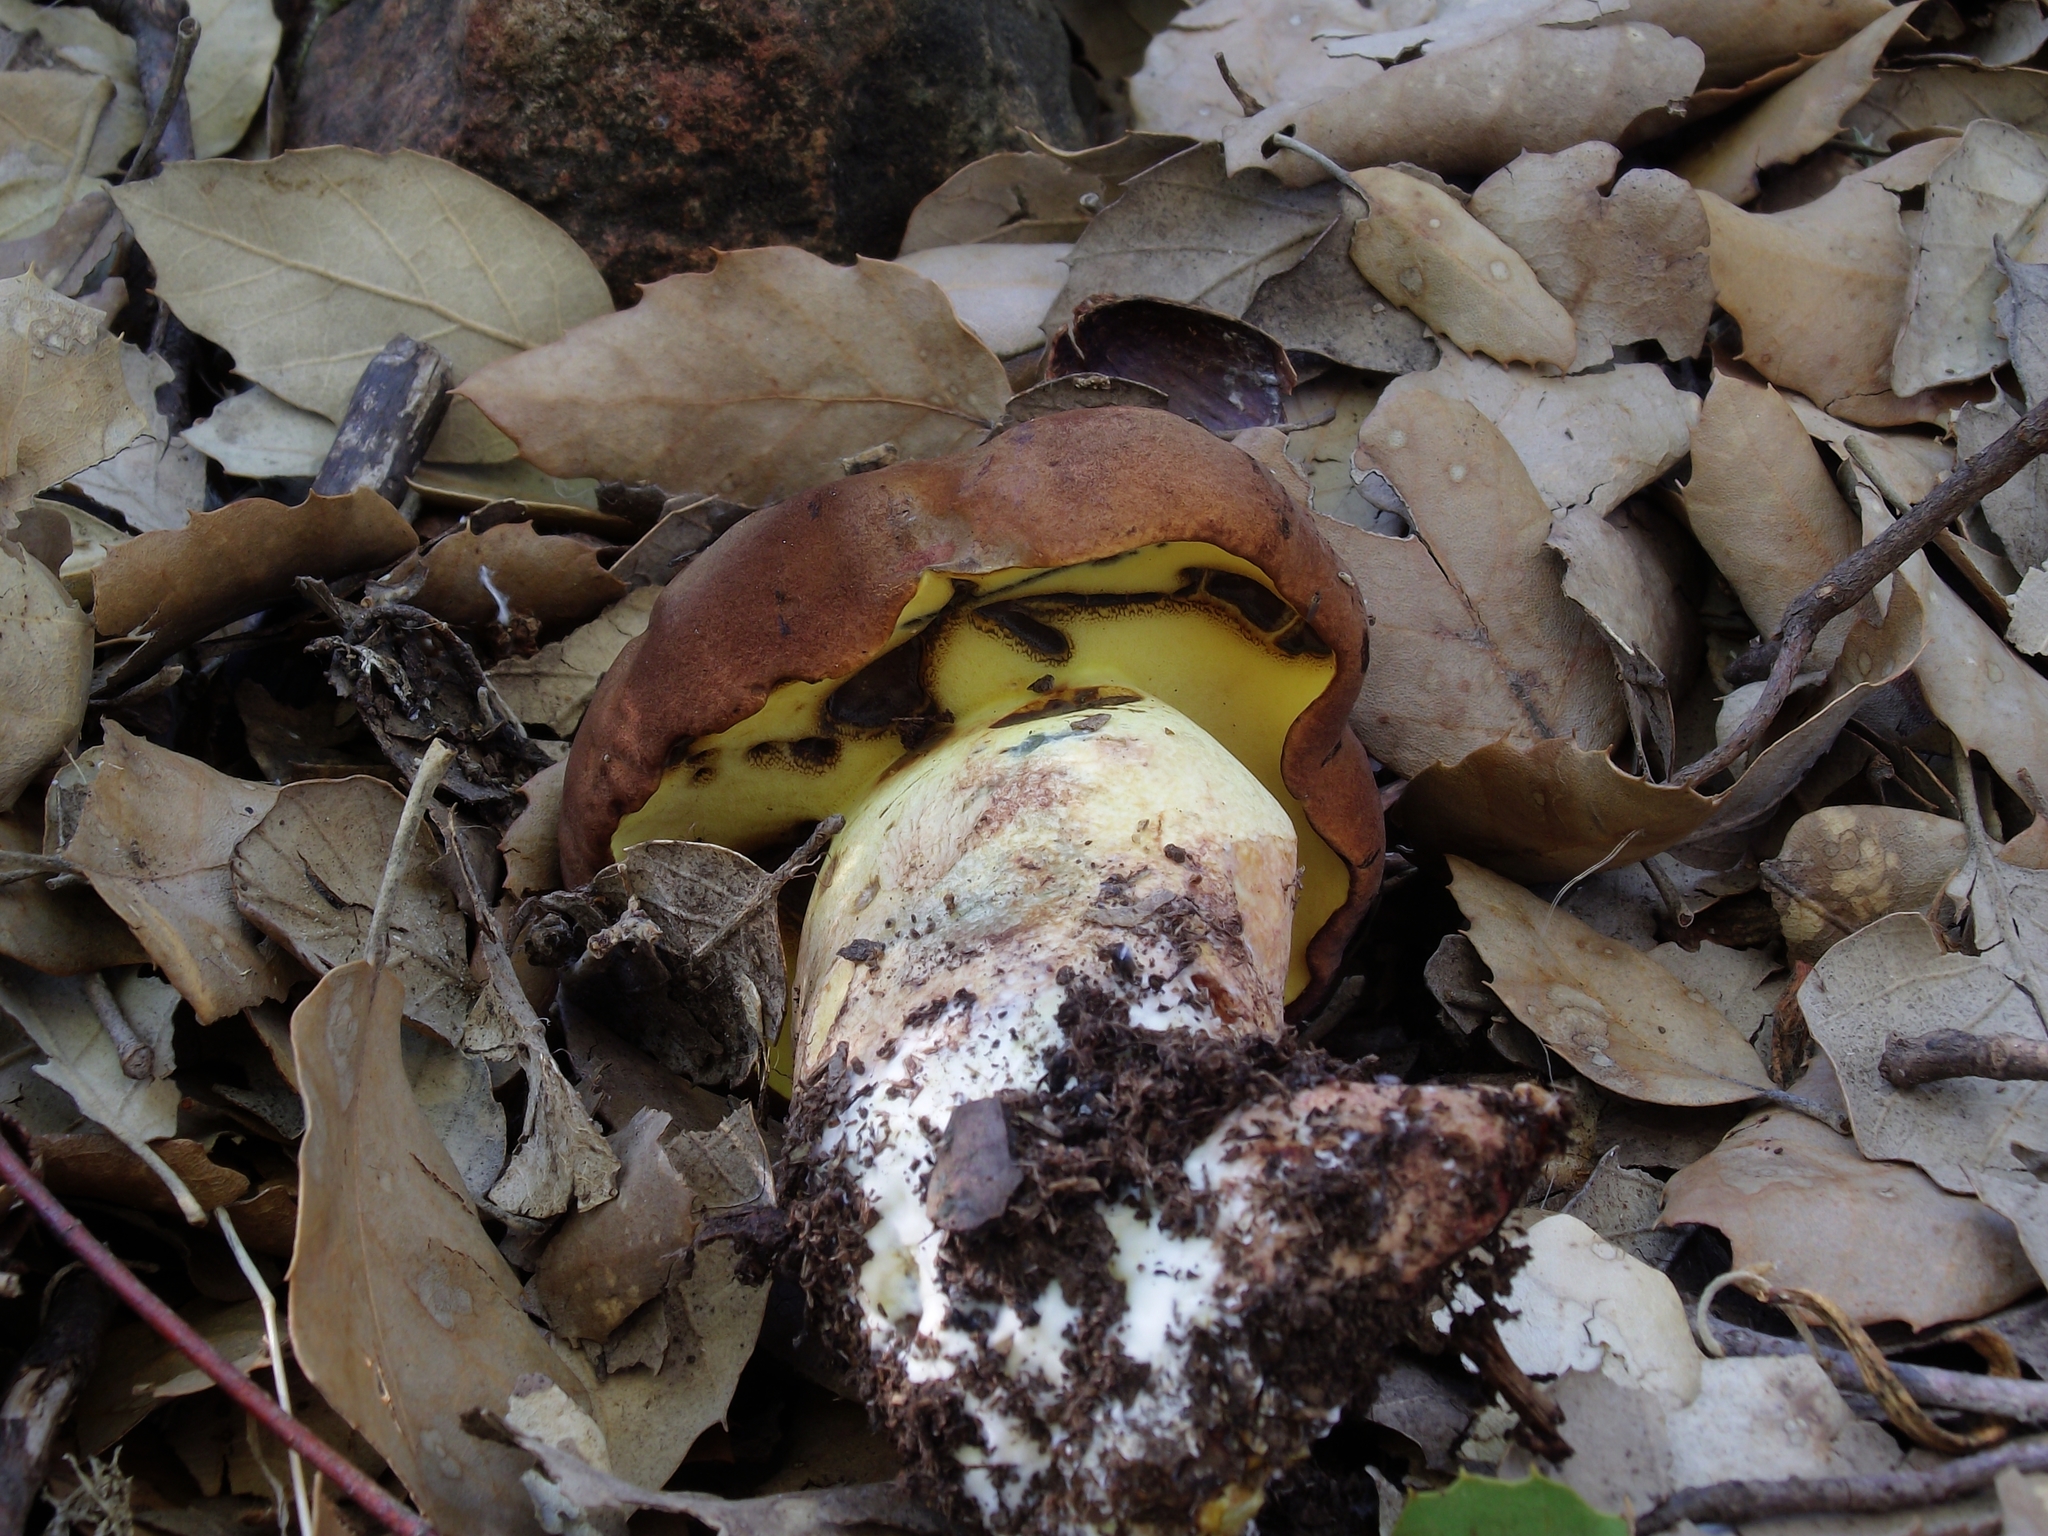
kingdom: Fungi
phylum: Basidiomycota
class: Agaricomycetes
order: Boletales
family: Boletaceae
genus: Lanmaoa
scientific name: Lanmaoa fragrans
